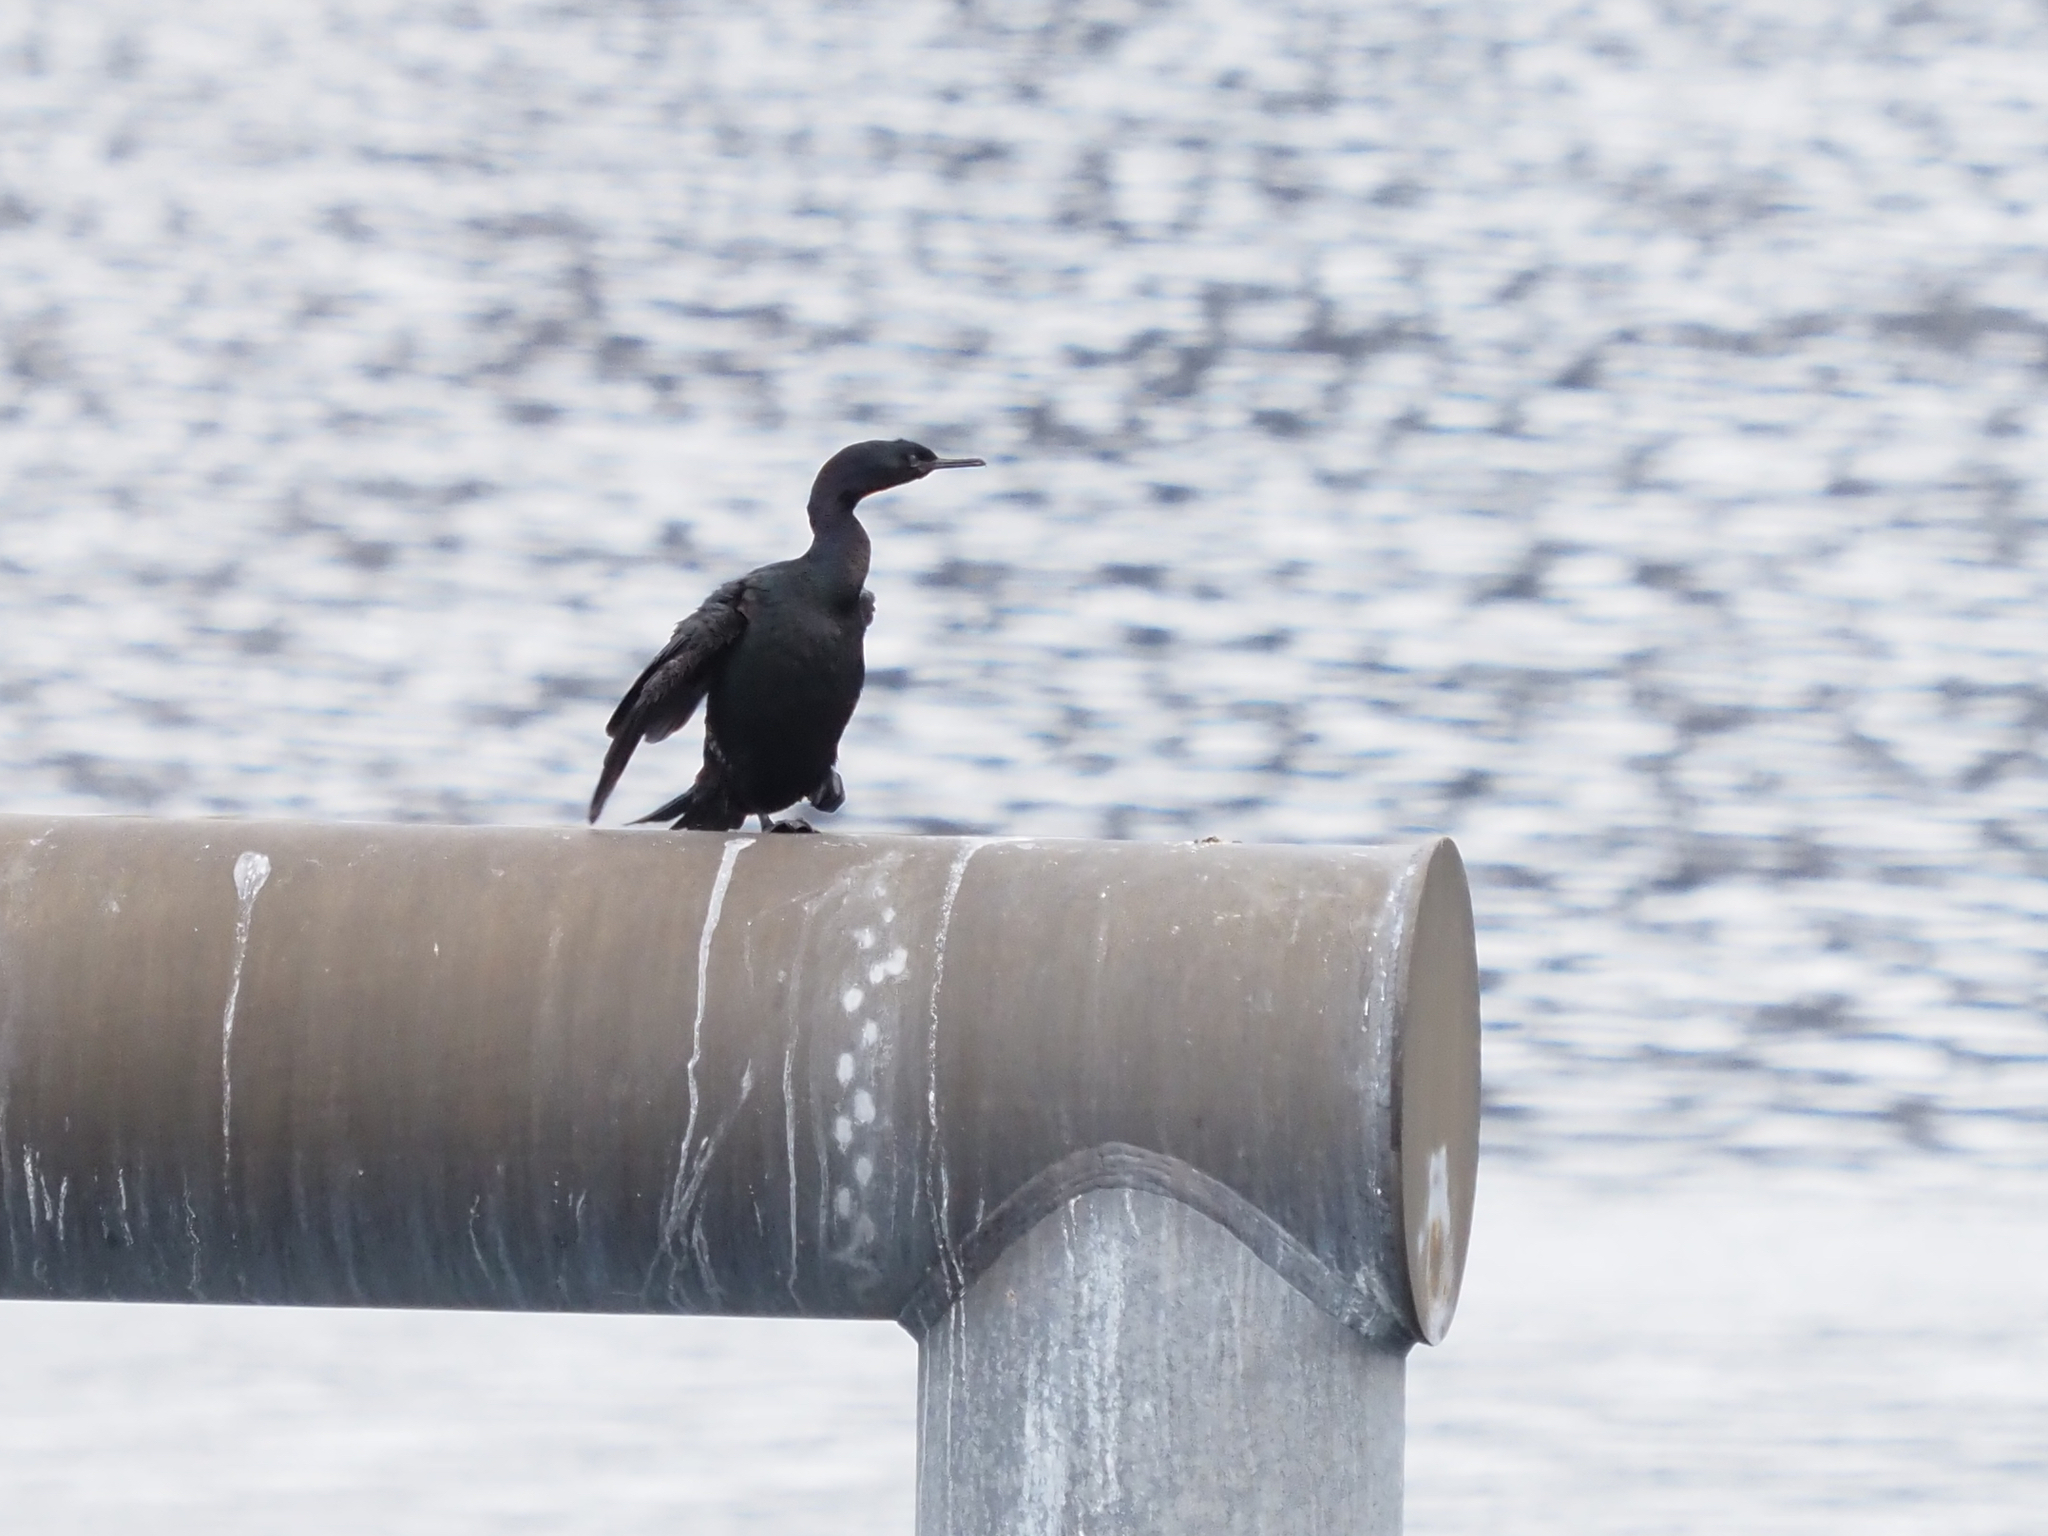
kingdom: Animalia
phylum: Chordata
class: Aves
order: Suliformes
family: Phalacrocoracidae
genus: Phalacrocorax
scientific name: Phalacrocorax pelagicus
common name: Pelagic cormorant
